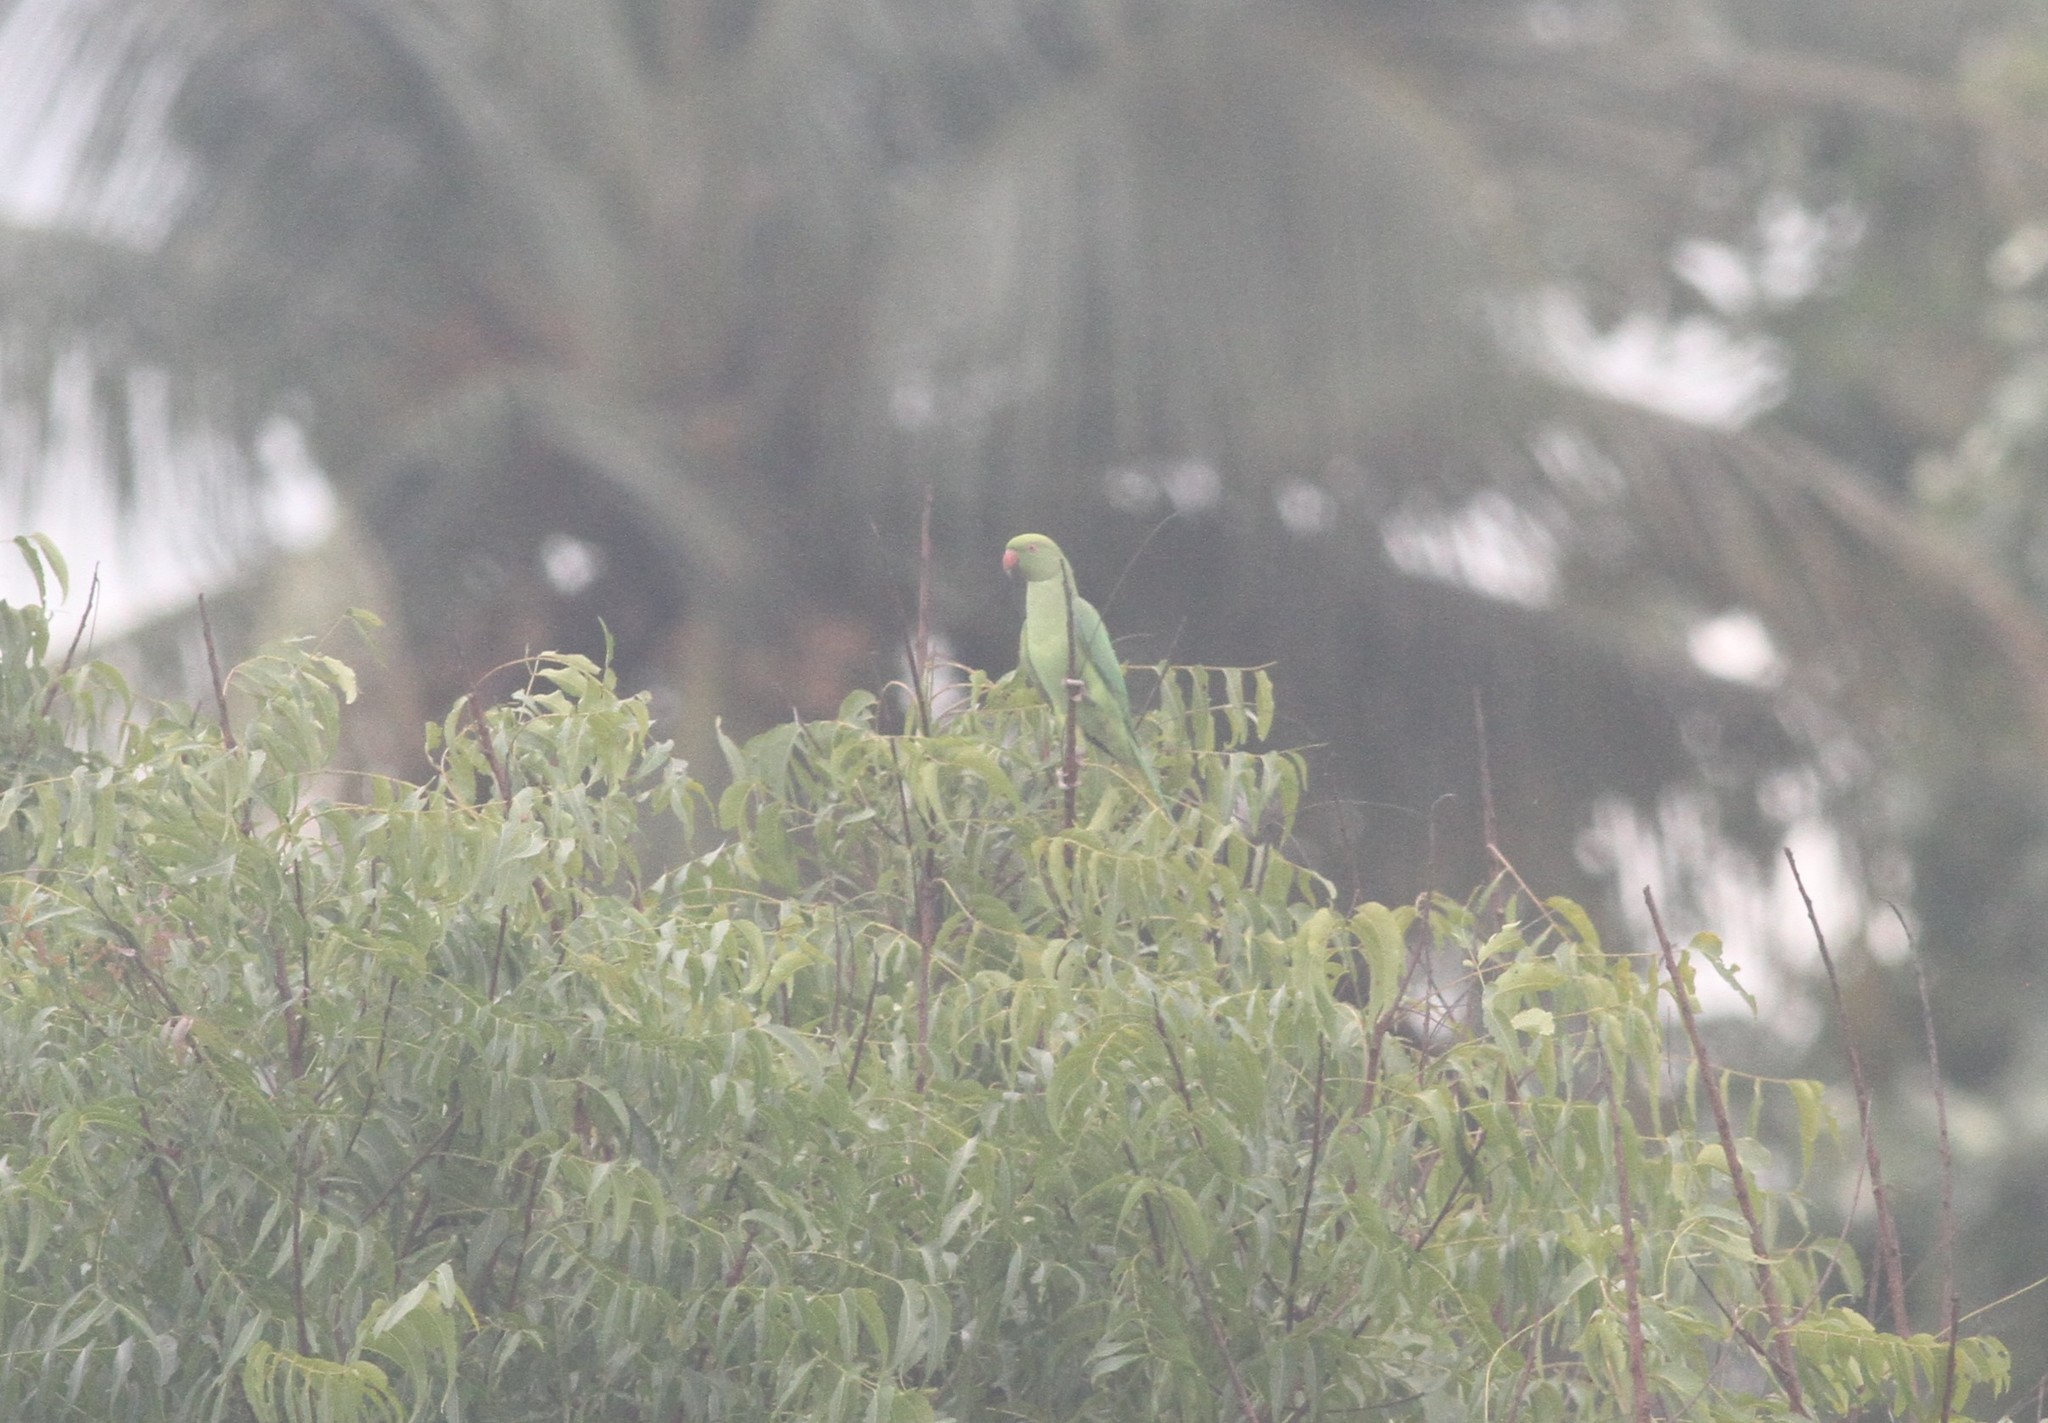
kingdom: Animalia
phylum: Chordata
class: Aves
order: Psittaciformes
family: Psittacidae
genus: Psittacula
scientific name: Psittacula krameri
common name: Rose-ringed parakeet
